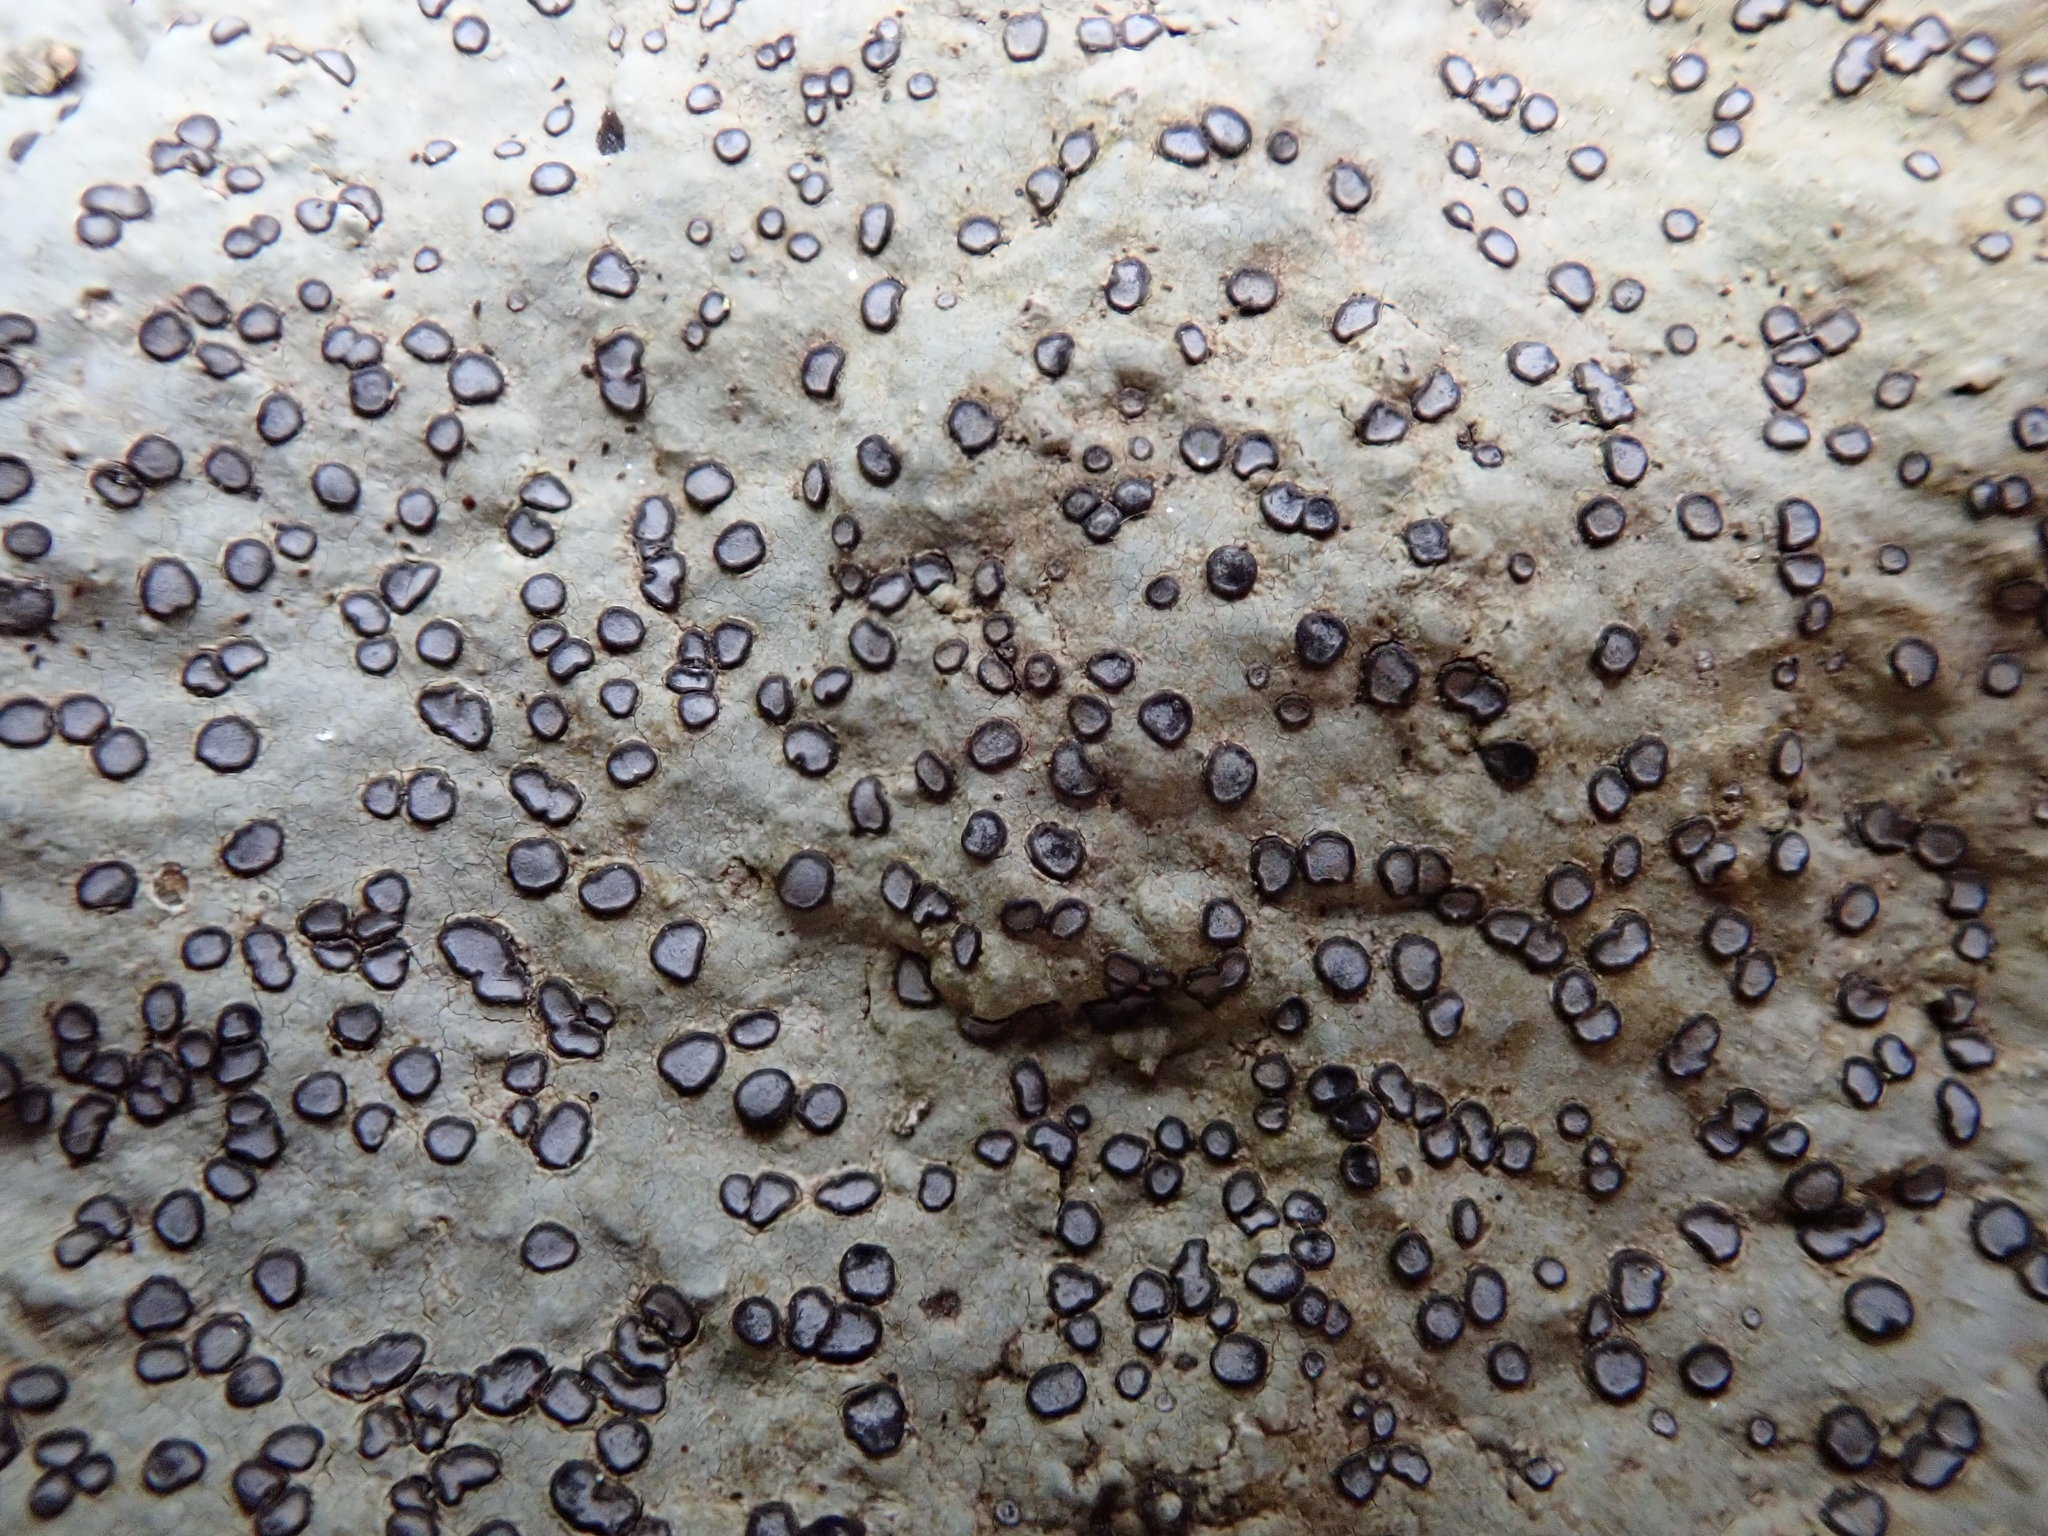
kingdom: Fungi
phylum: Ascomycota
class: Lecanoromycetes
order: Lecideales
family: Lecideaceae
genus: Porpidia
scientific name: Porpidia albocaerulescens
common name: Smokey-eyed boulder lichen
